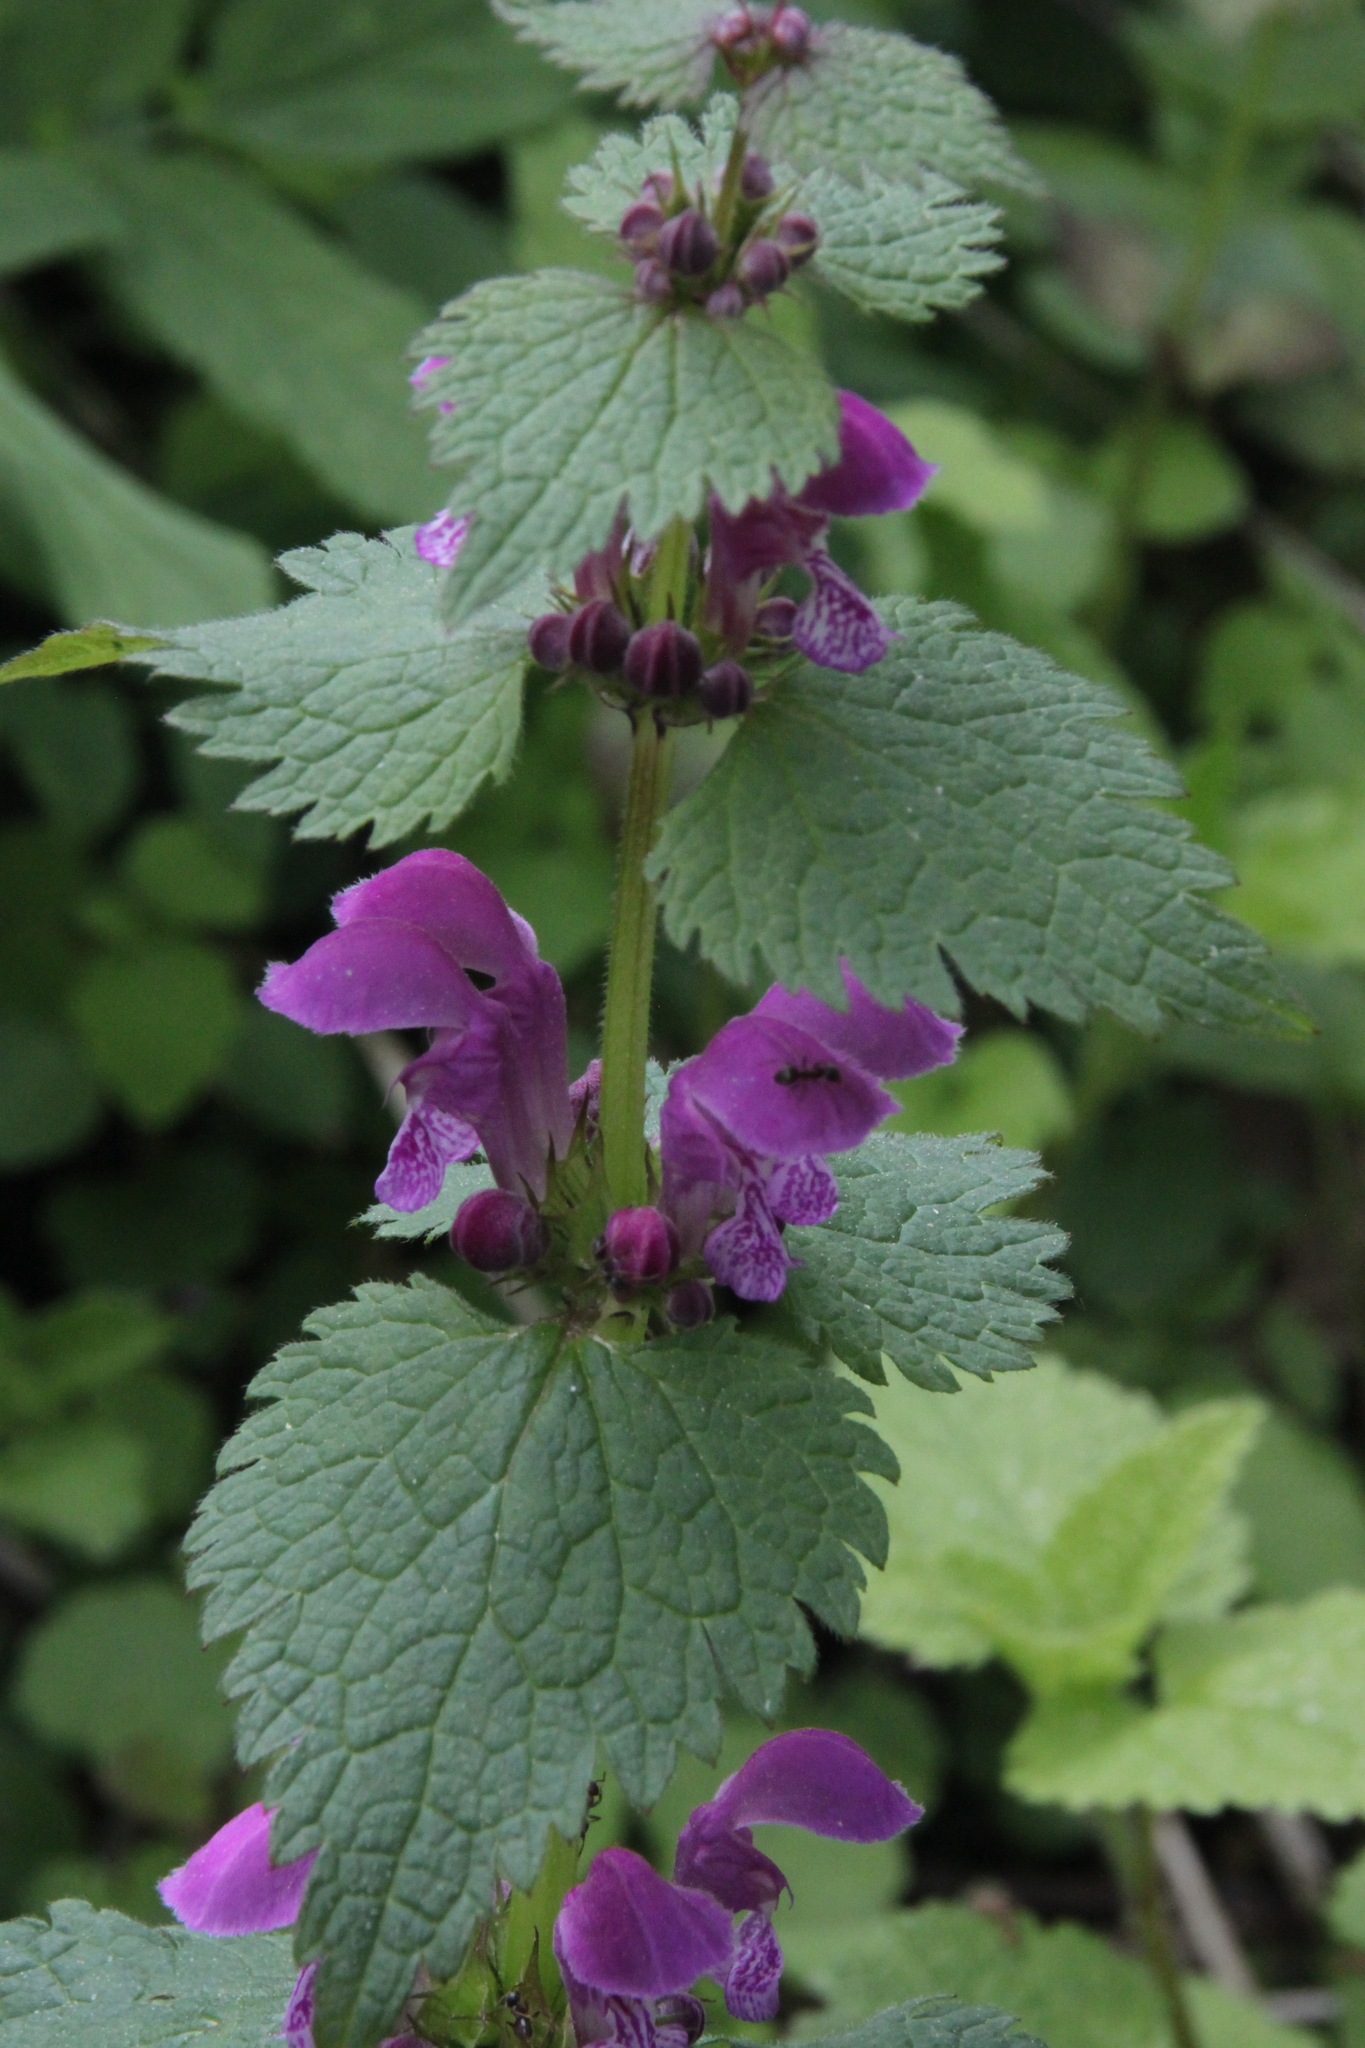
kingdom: Plantae
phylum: Tracheophyta
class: Magnoliopsida
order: Lamiales
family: Lamiaceae
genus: Lamium
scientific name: Lamium maculatum
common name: Spotted dead-nettle
